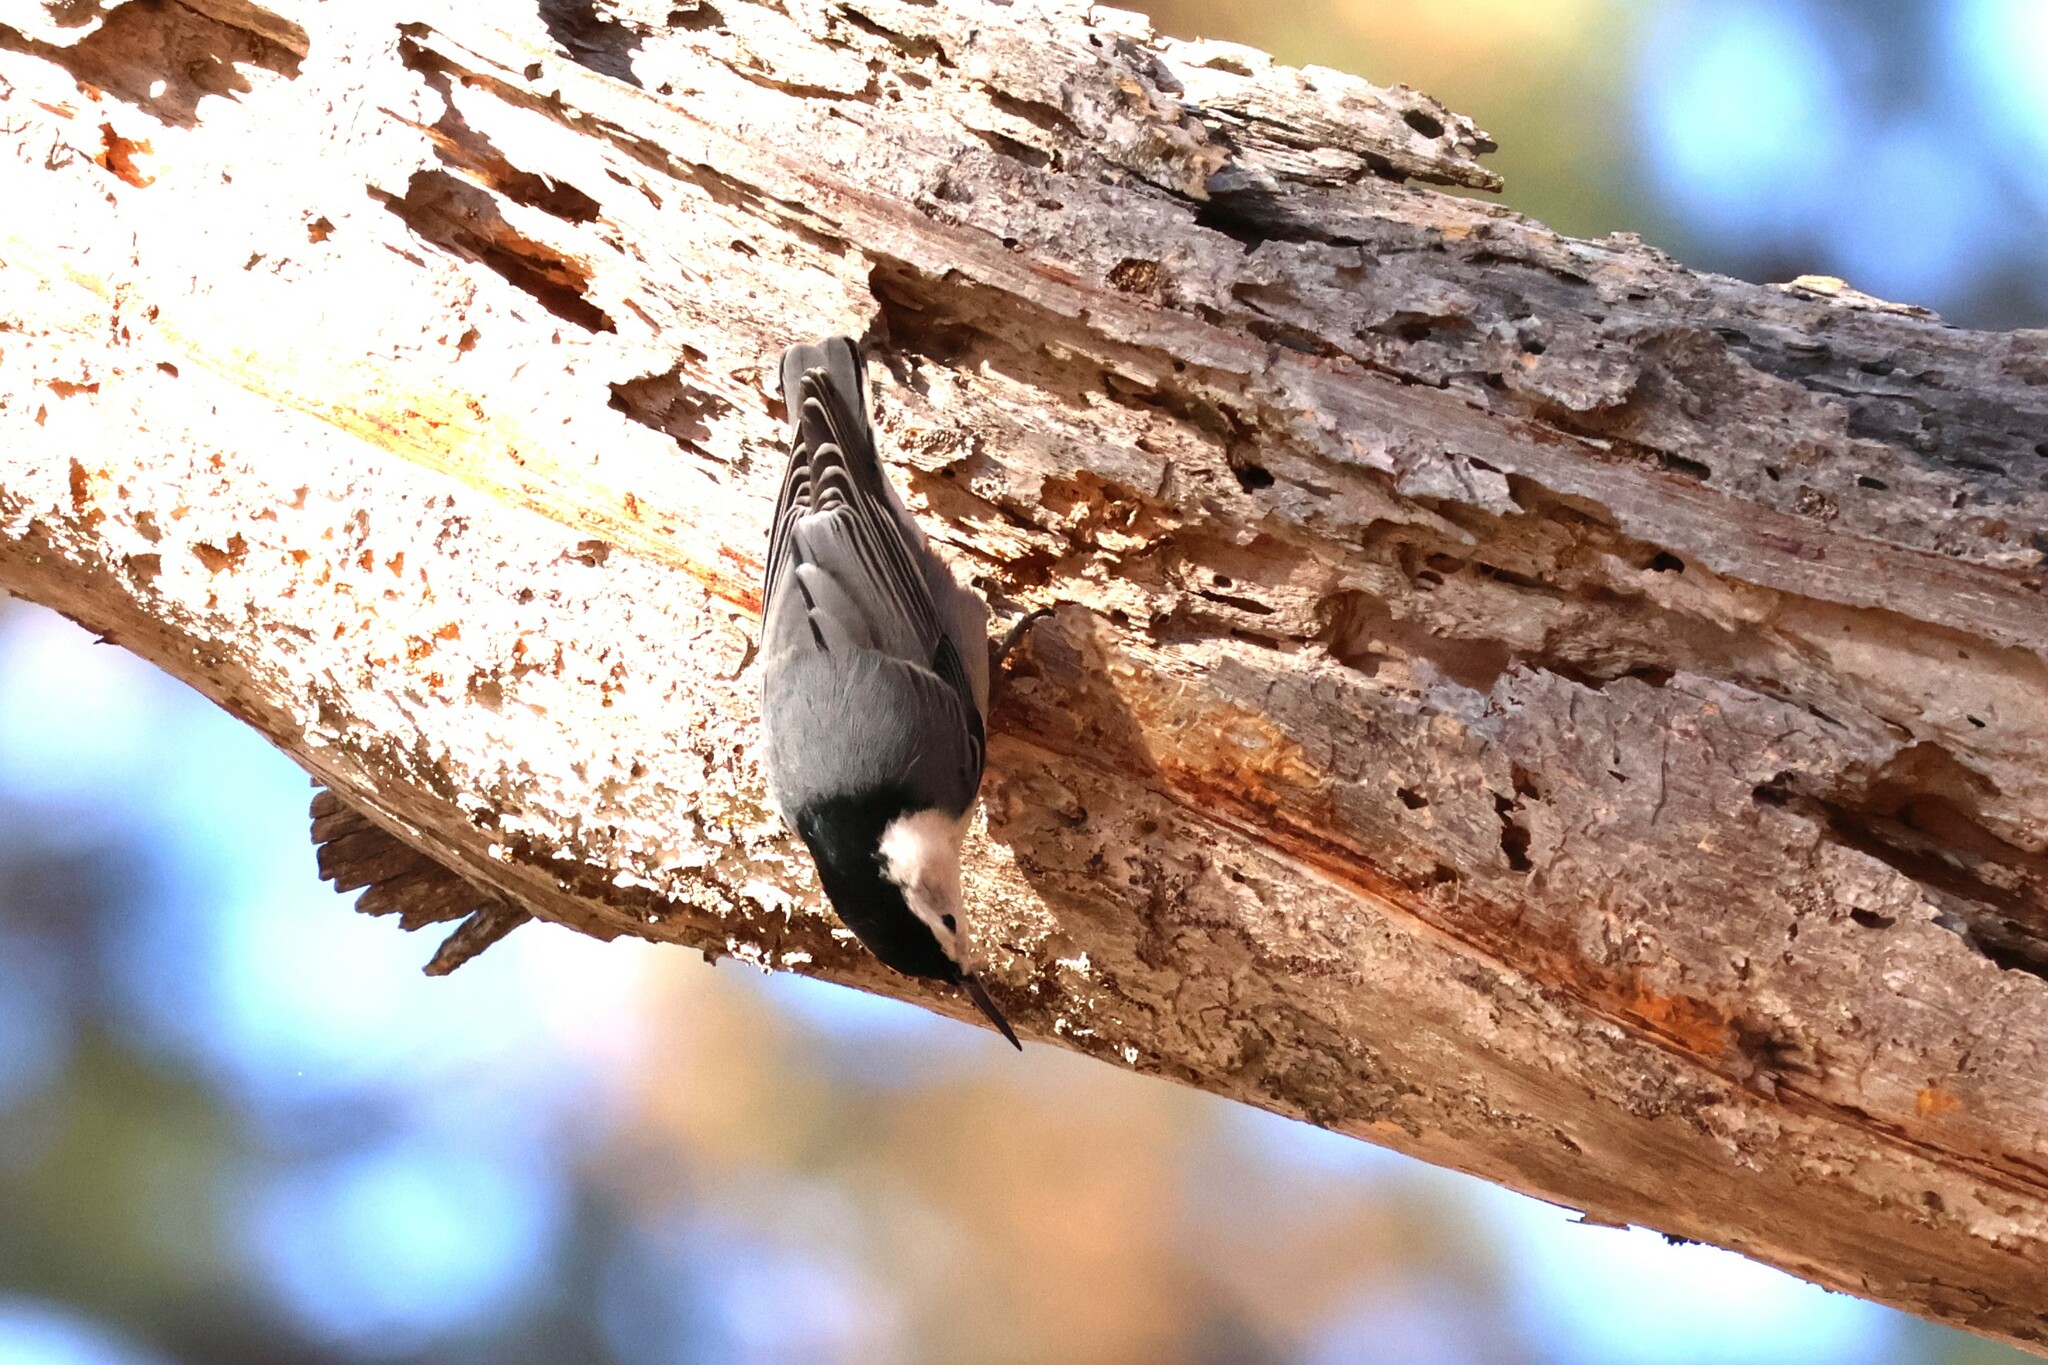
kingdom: Animalia
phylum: Chordata
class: Aves
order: Passeriformes
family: Sittidae
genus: Sitta
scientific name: Sitta carolinensis
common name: White-breasted nuthatch
